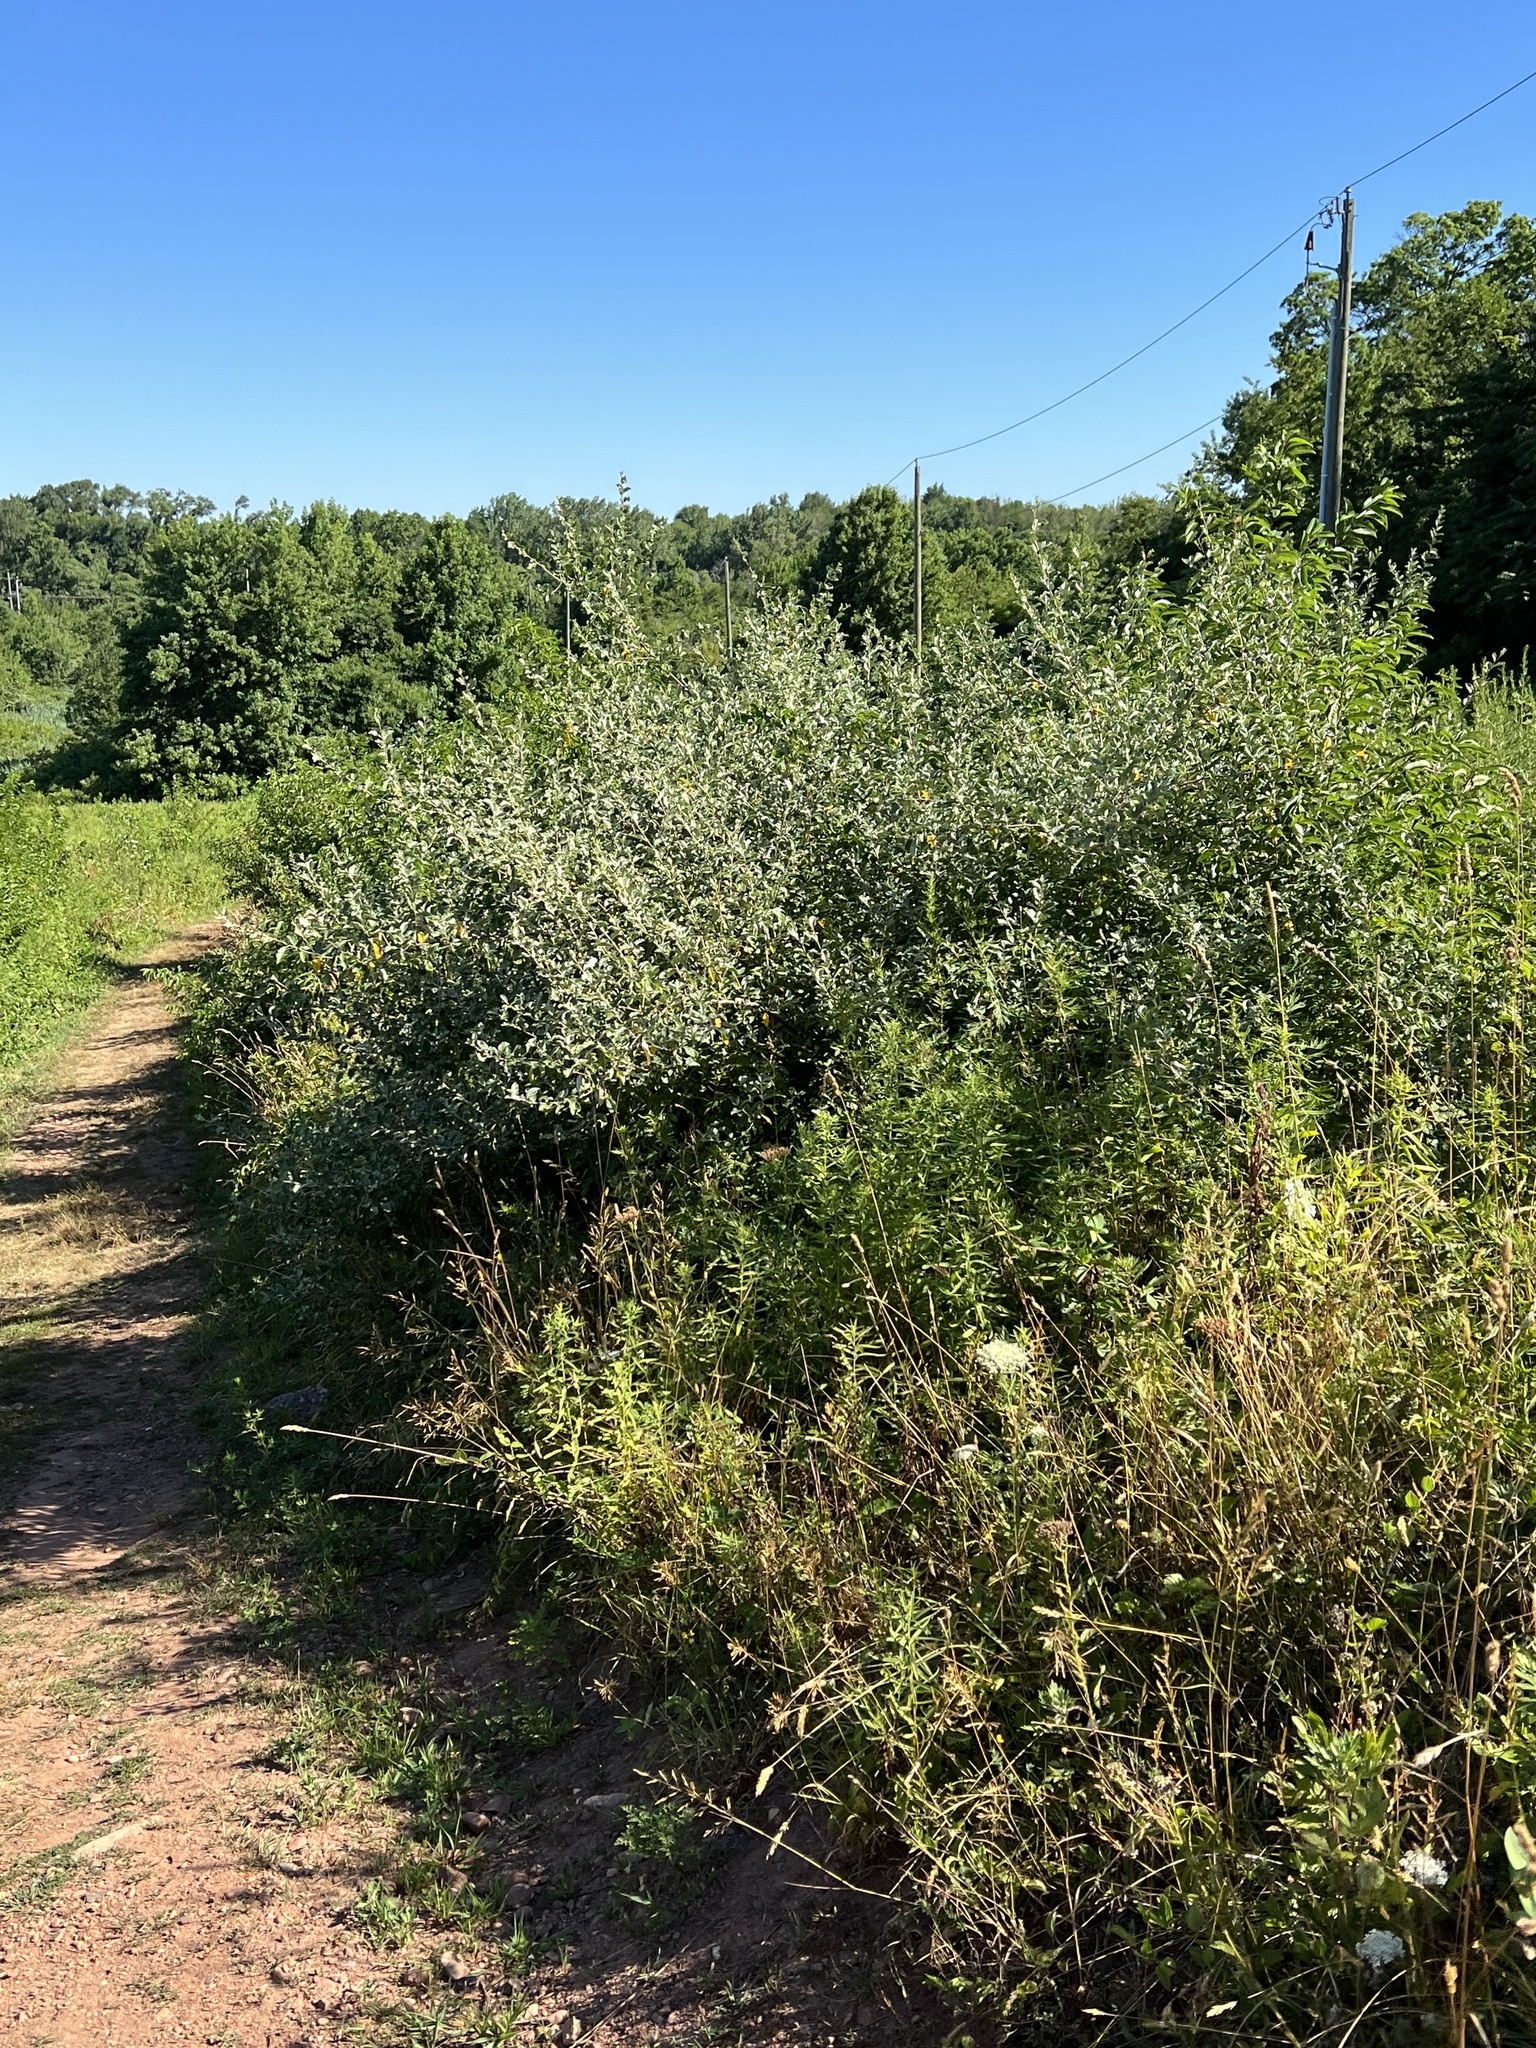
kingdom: Plantae
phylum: Tracheophyta
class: Magnoliopsida
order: Rosales
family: Elaeagnaceae
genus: Elaeagnus
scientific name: Elaeagnus umbellata
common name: Autumn olive
